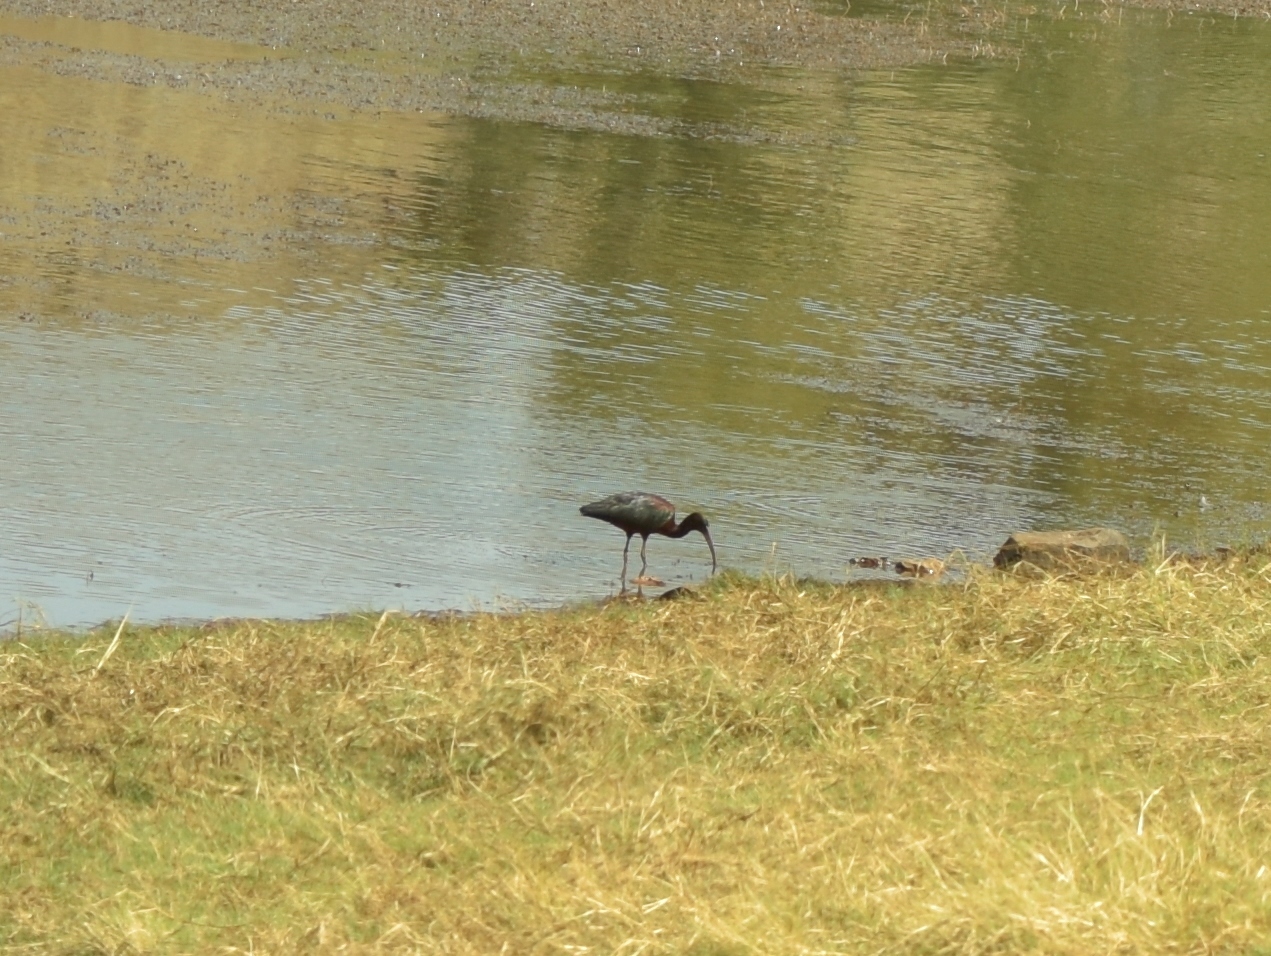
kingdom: Animalia
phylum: Chordata
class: Aves
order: Pelecaniformes
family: Threskiornithidae
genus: Plegadis
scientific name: Plegadis falcinellus
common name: Glossy ibis
